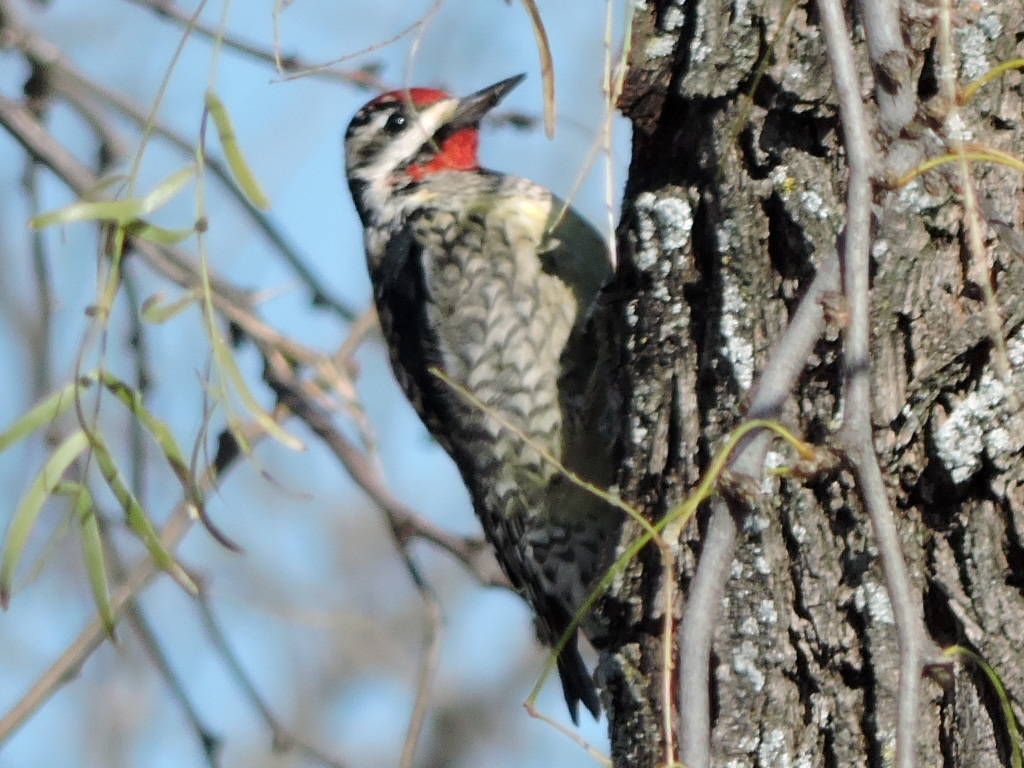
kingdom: Animalia
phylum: Chordata
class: Aves
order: Piciformes
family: Picidae
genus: Sphyrapicus
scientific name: Sphyrapicus varius
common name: Yellow-bellied sapsucker
